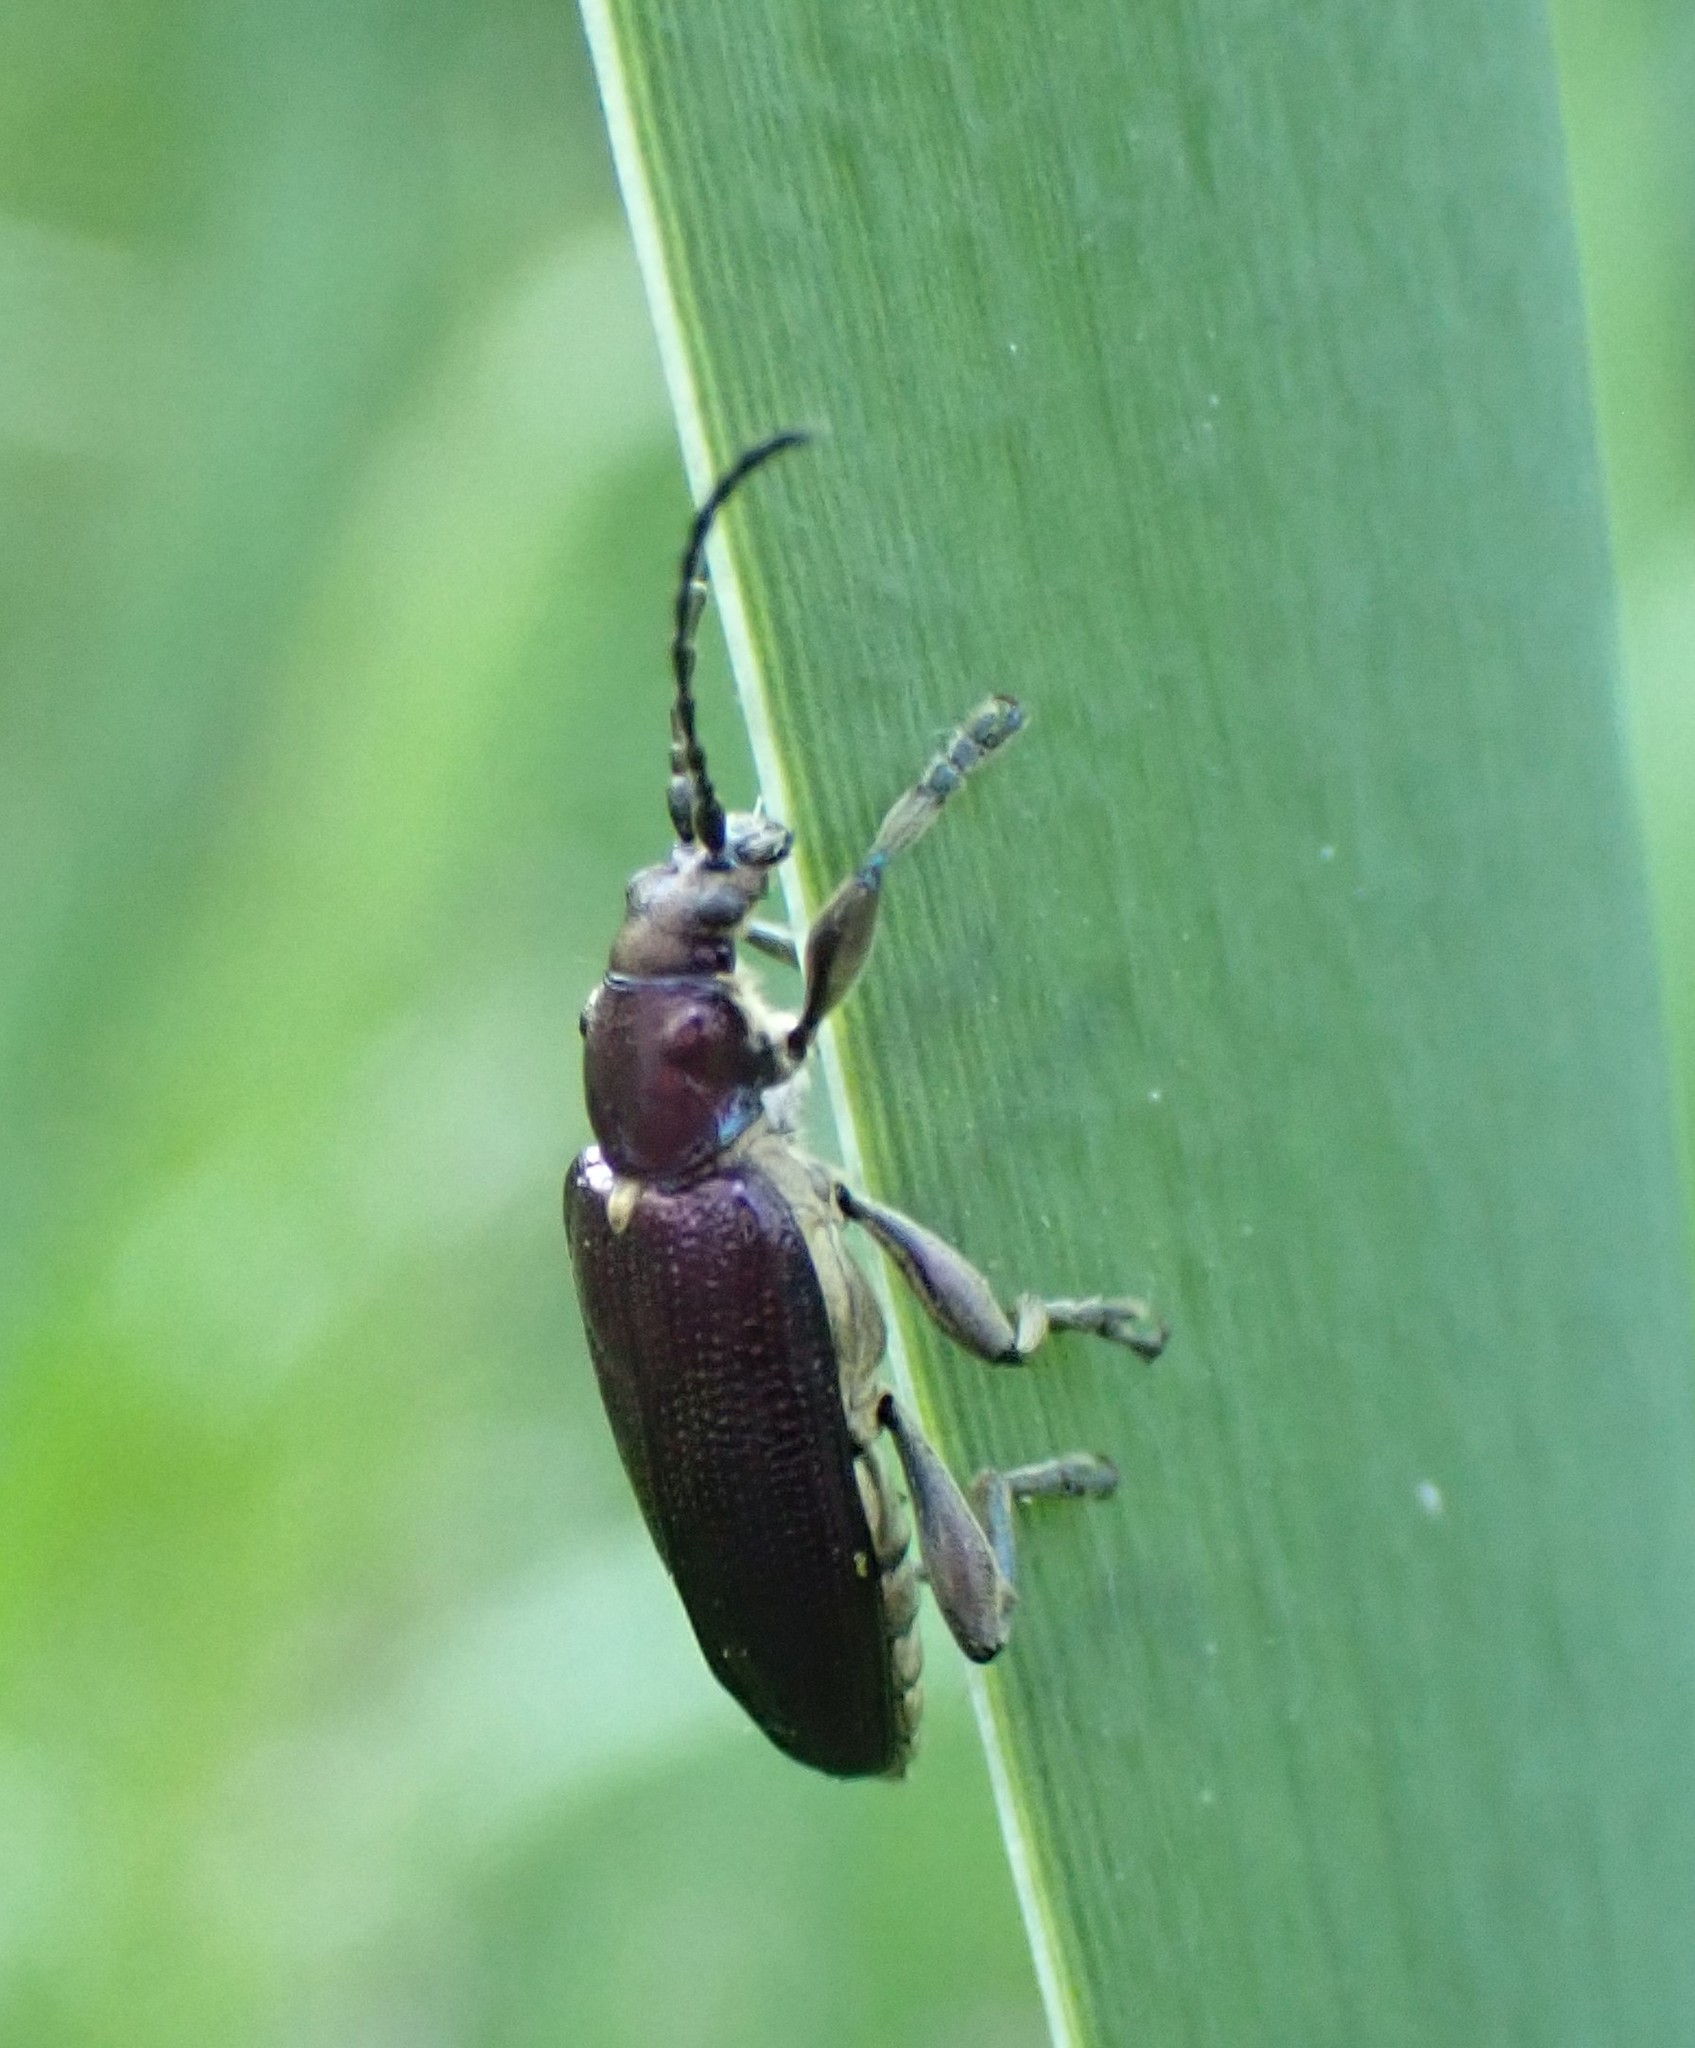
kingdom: Animalia
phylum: Arthropoda
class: Insecta
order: Coleoptera
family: Chrysomelidae
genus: Plateumaris
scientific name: Plateumaris sericea
